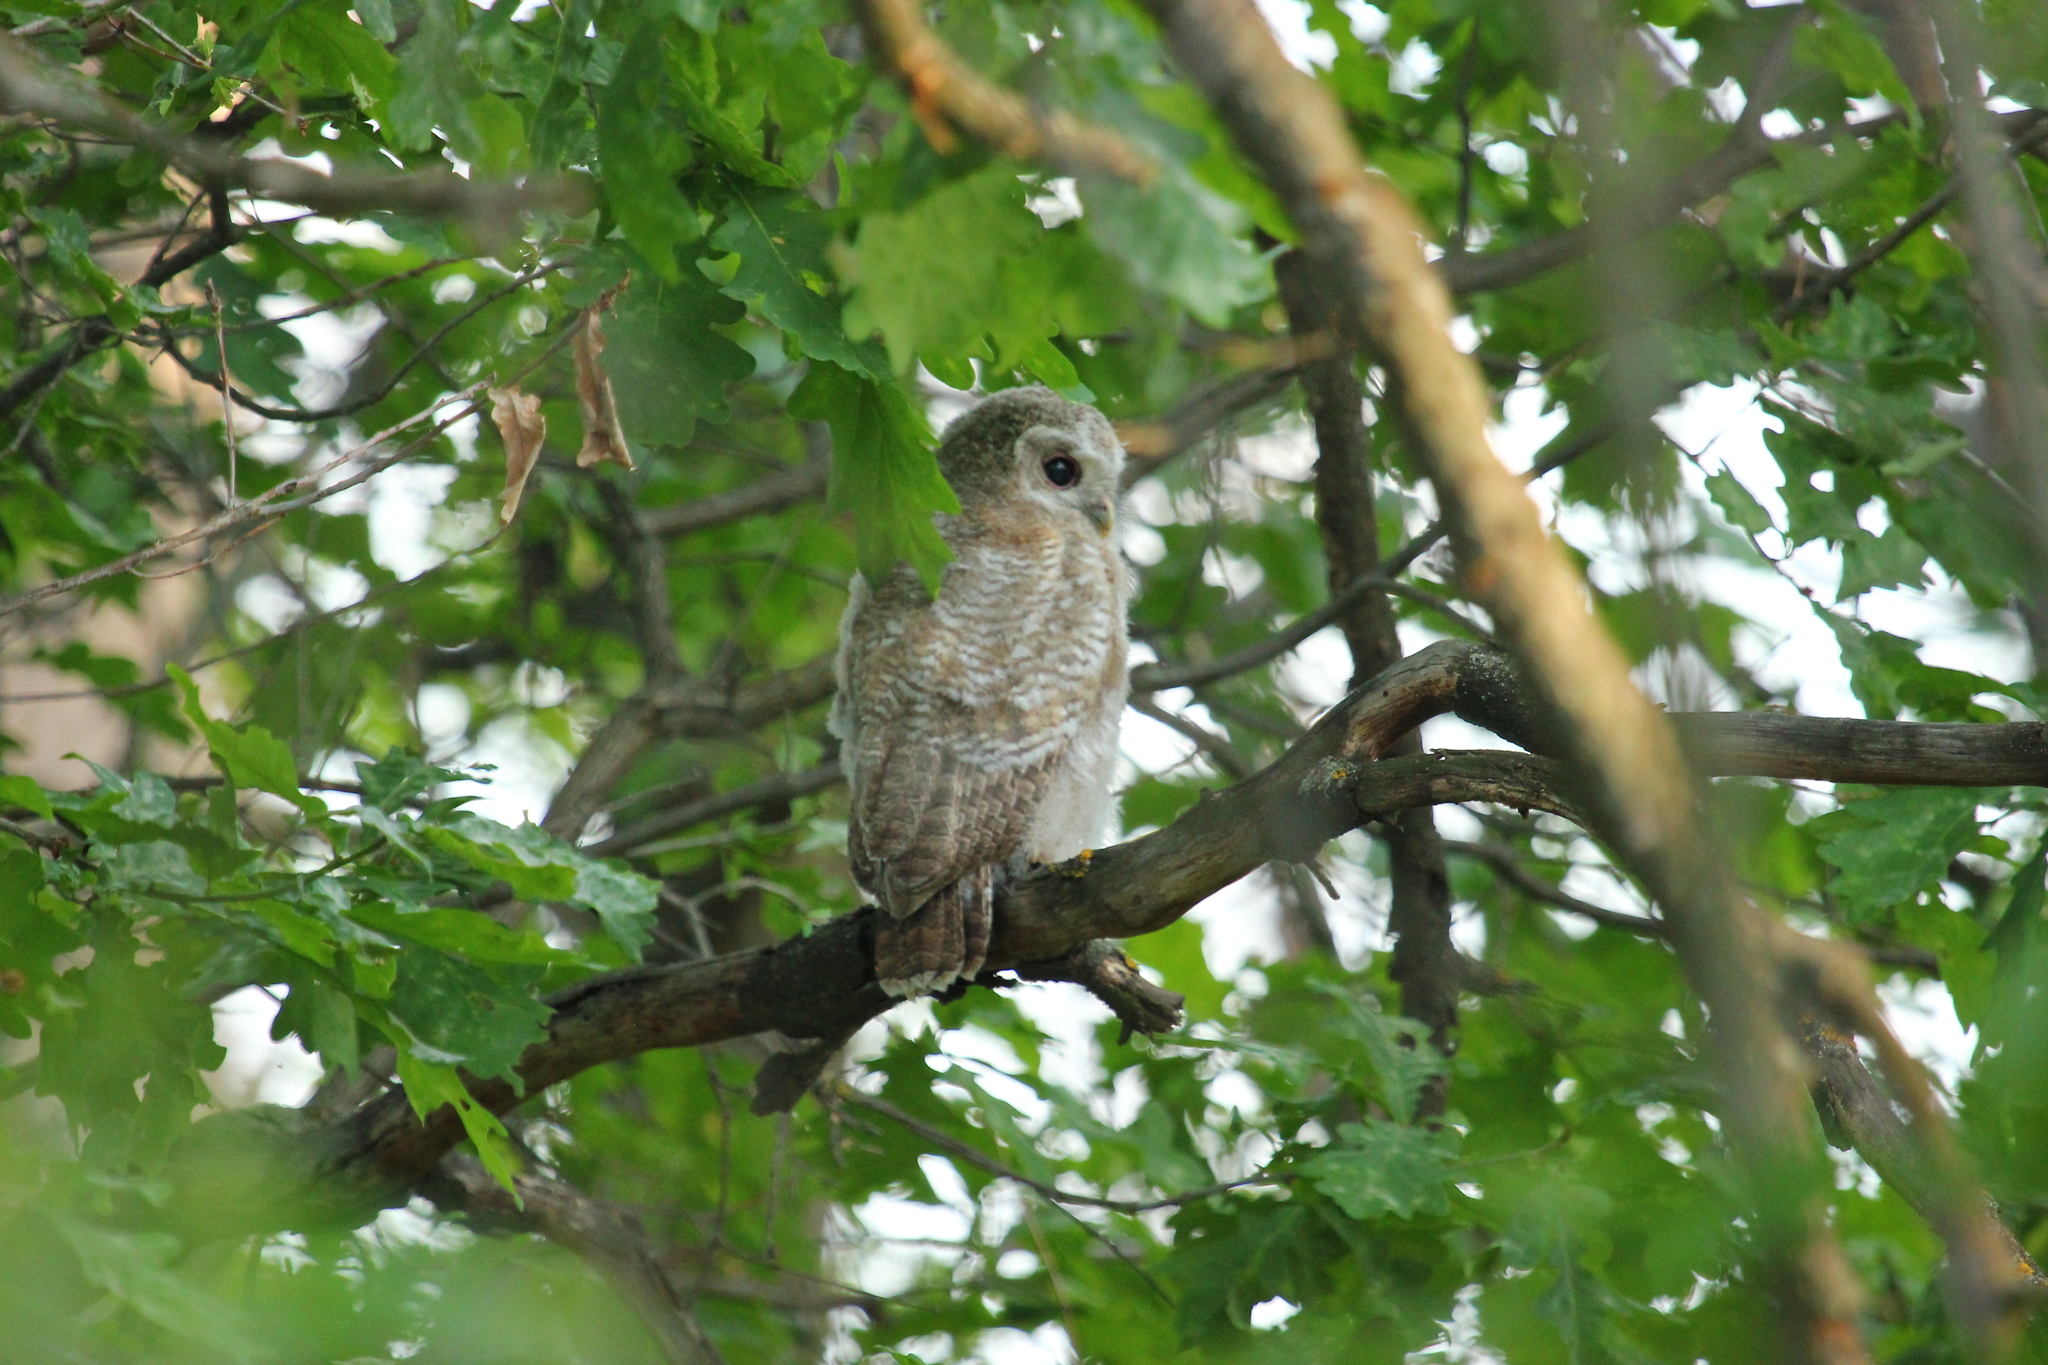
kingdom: Animalia
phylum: Chordata
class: Aves
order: Strigiformes
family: Strigidae
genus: Strix
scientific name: Strix aluco
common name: Tawny owl
